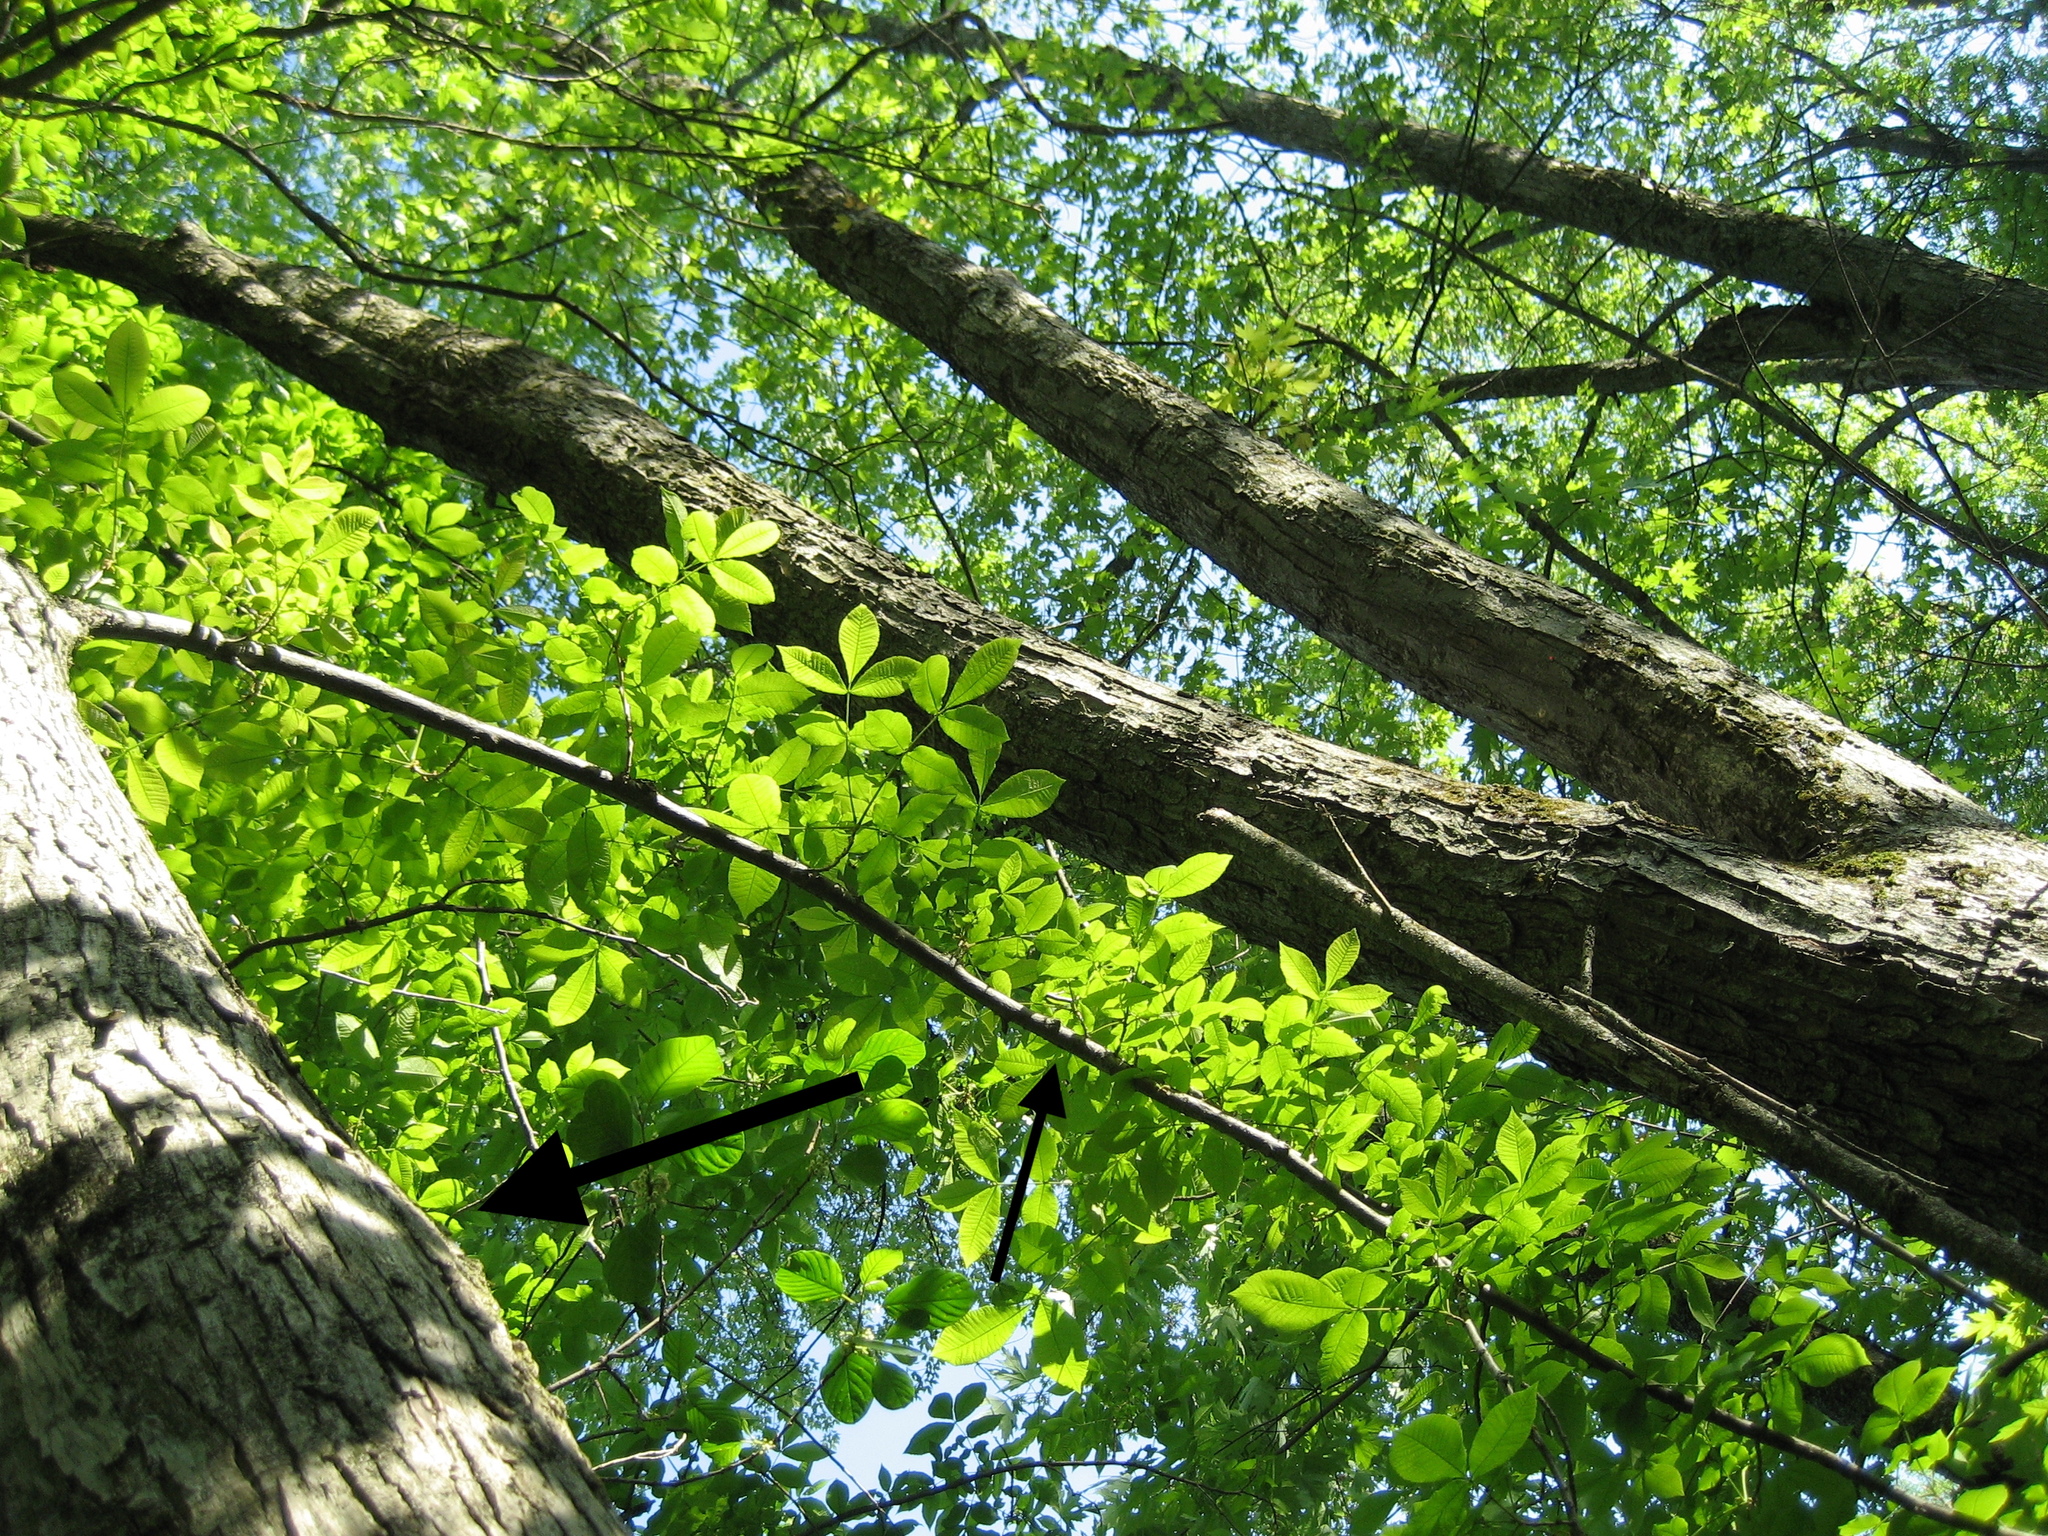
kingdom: Plantae
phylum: Tracheophyta
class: Magnoliopsida
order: Fagales
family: Juglandaceae
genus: Carya
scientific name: Carya cordiformis
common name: Bitternut hickory
